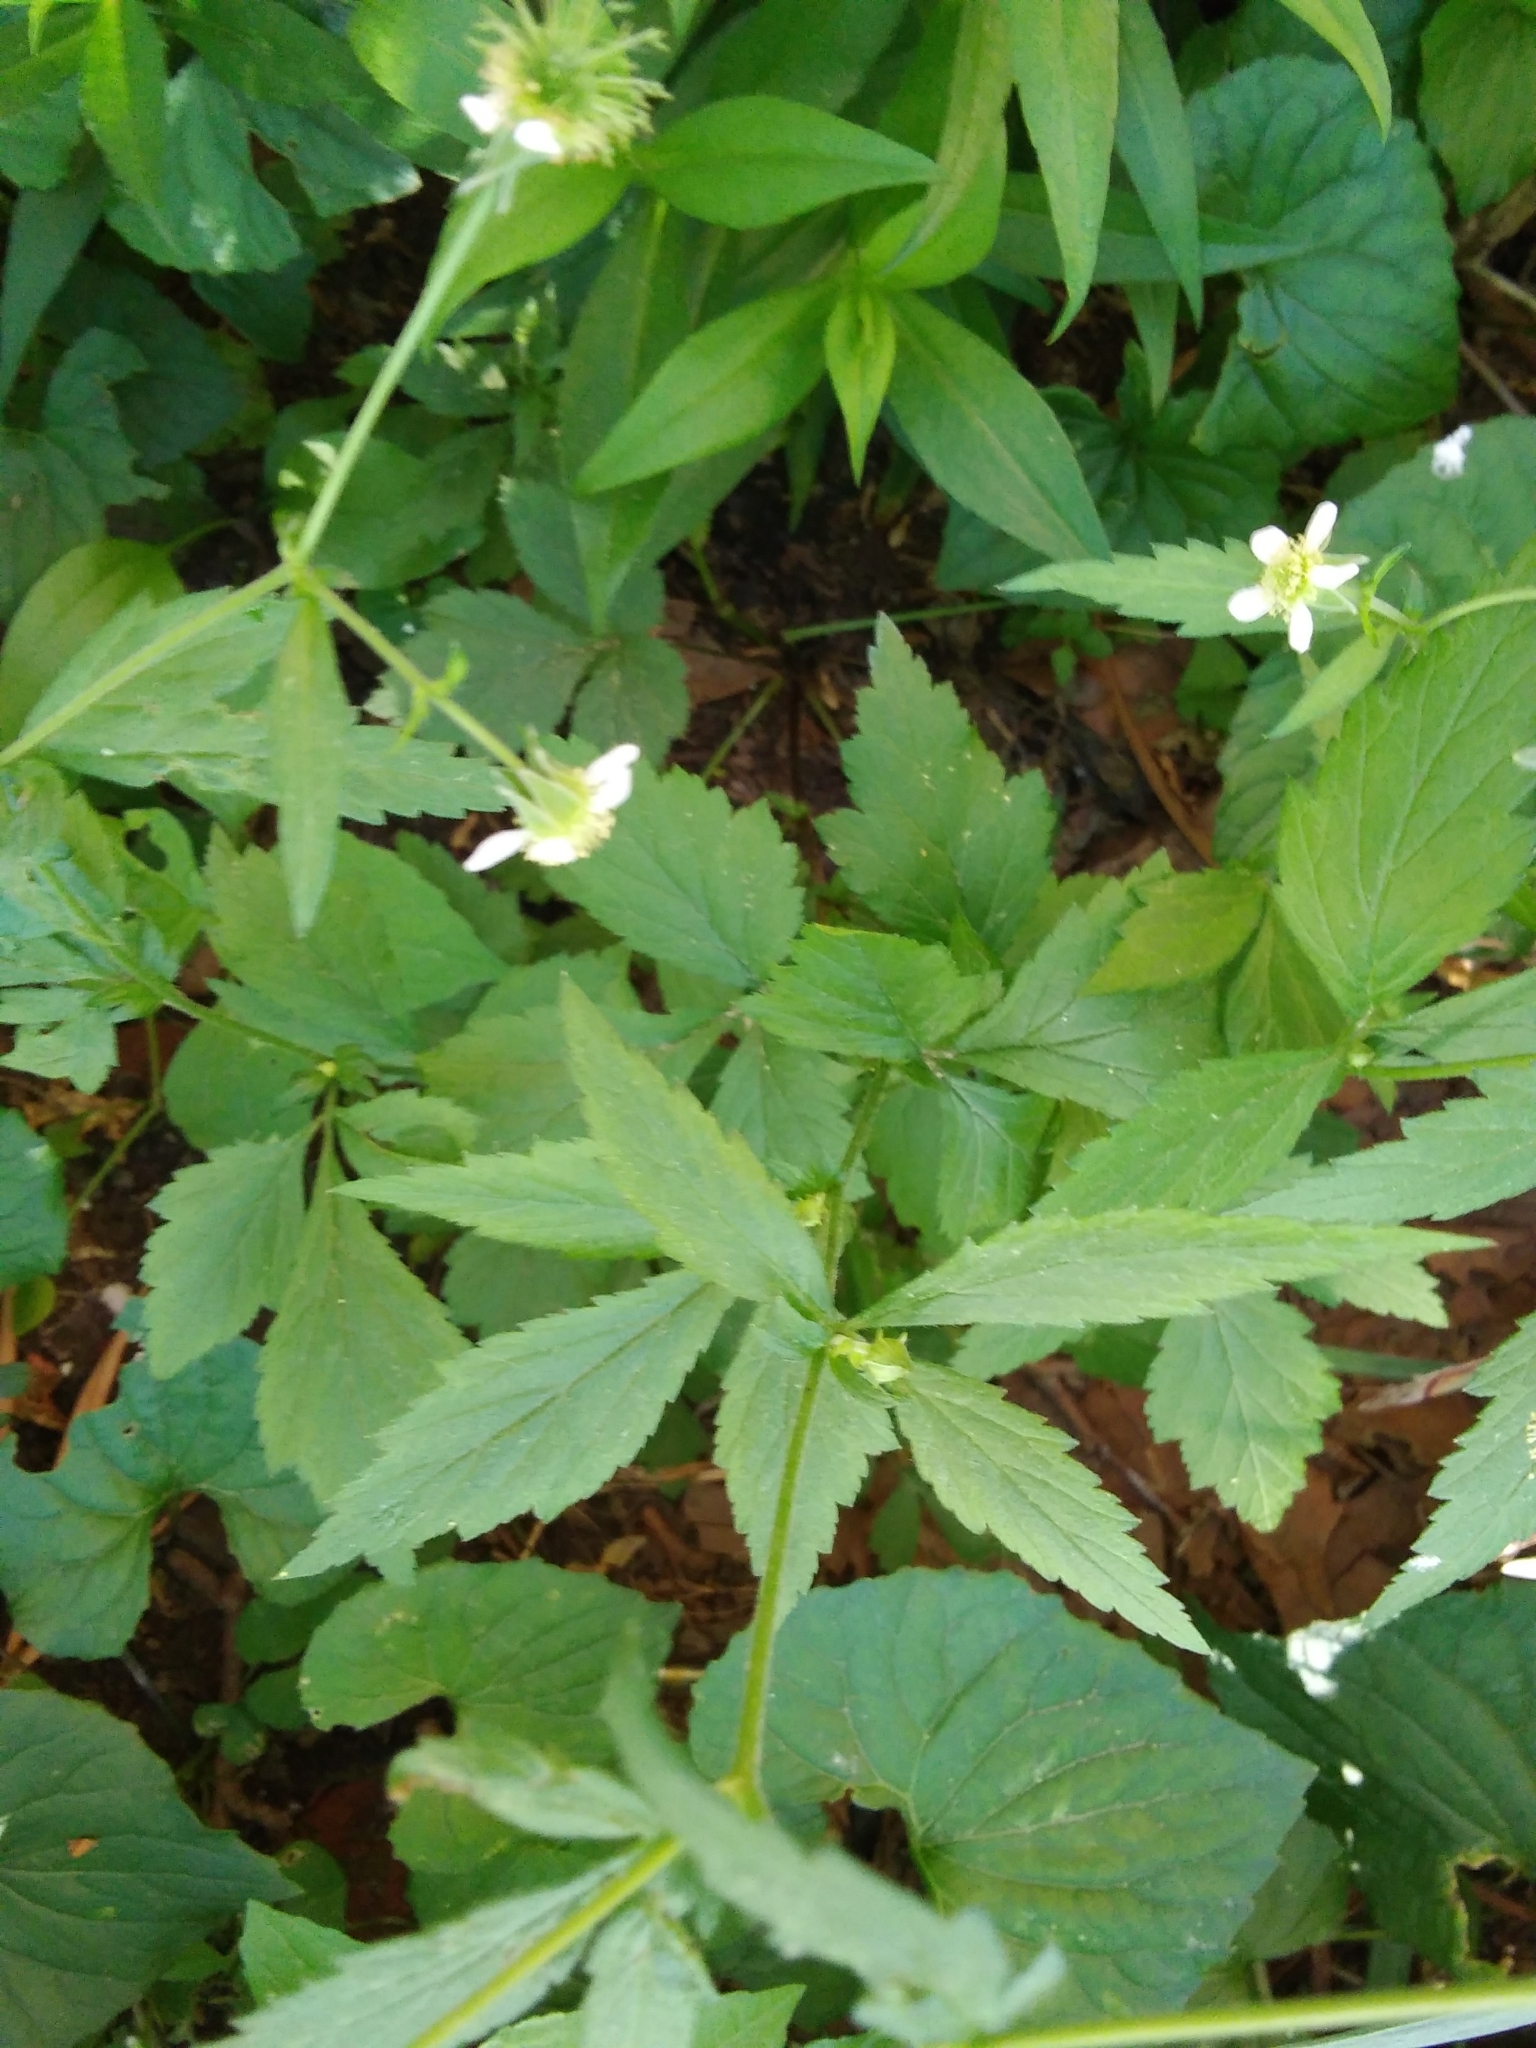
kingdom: Plantae
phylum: Tracheophyta
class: Magnoliopsida
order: Rosales
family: Rosaceae
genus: Geum
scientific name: Geum canadense
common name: White avens
